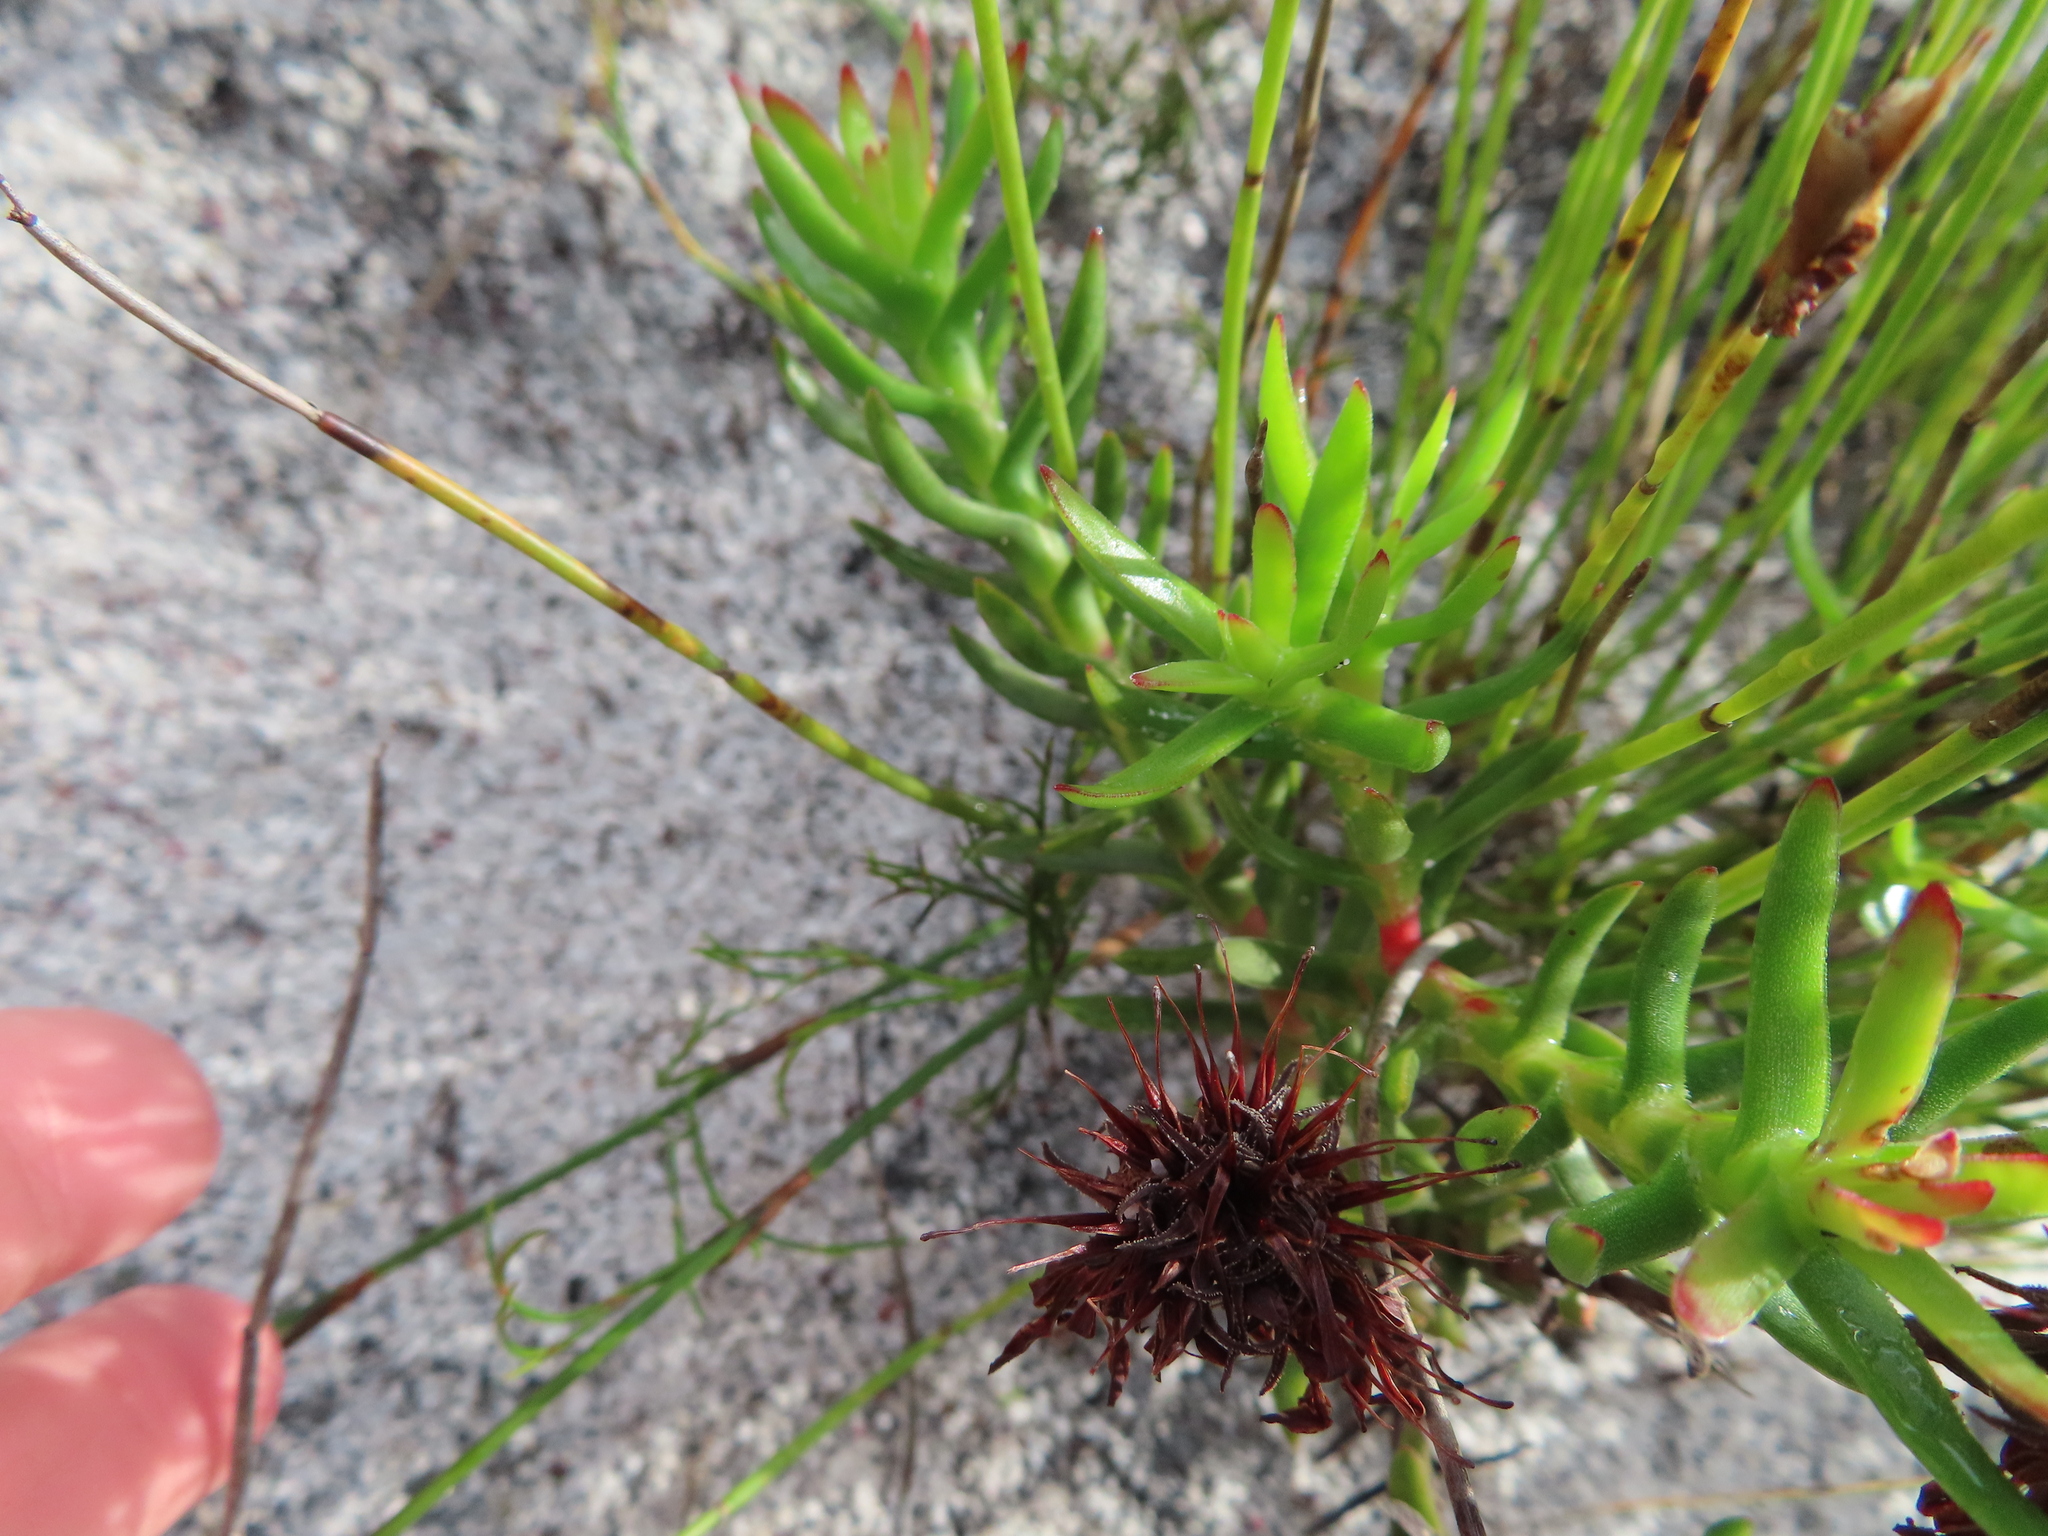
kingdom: Plantae
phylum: Tracheophyta
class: Magnoliopsida
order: Saxifragales
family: Crassulaceae
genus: Crassula
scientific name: Crassula fascicularis
